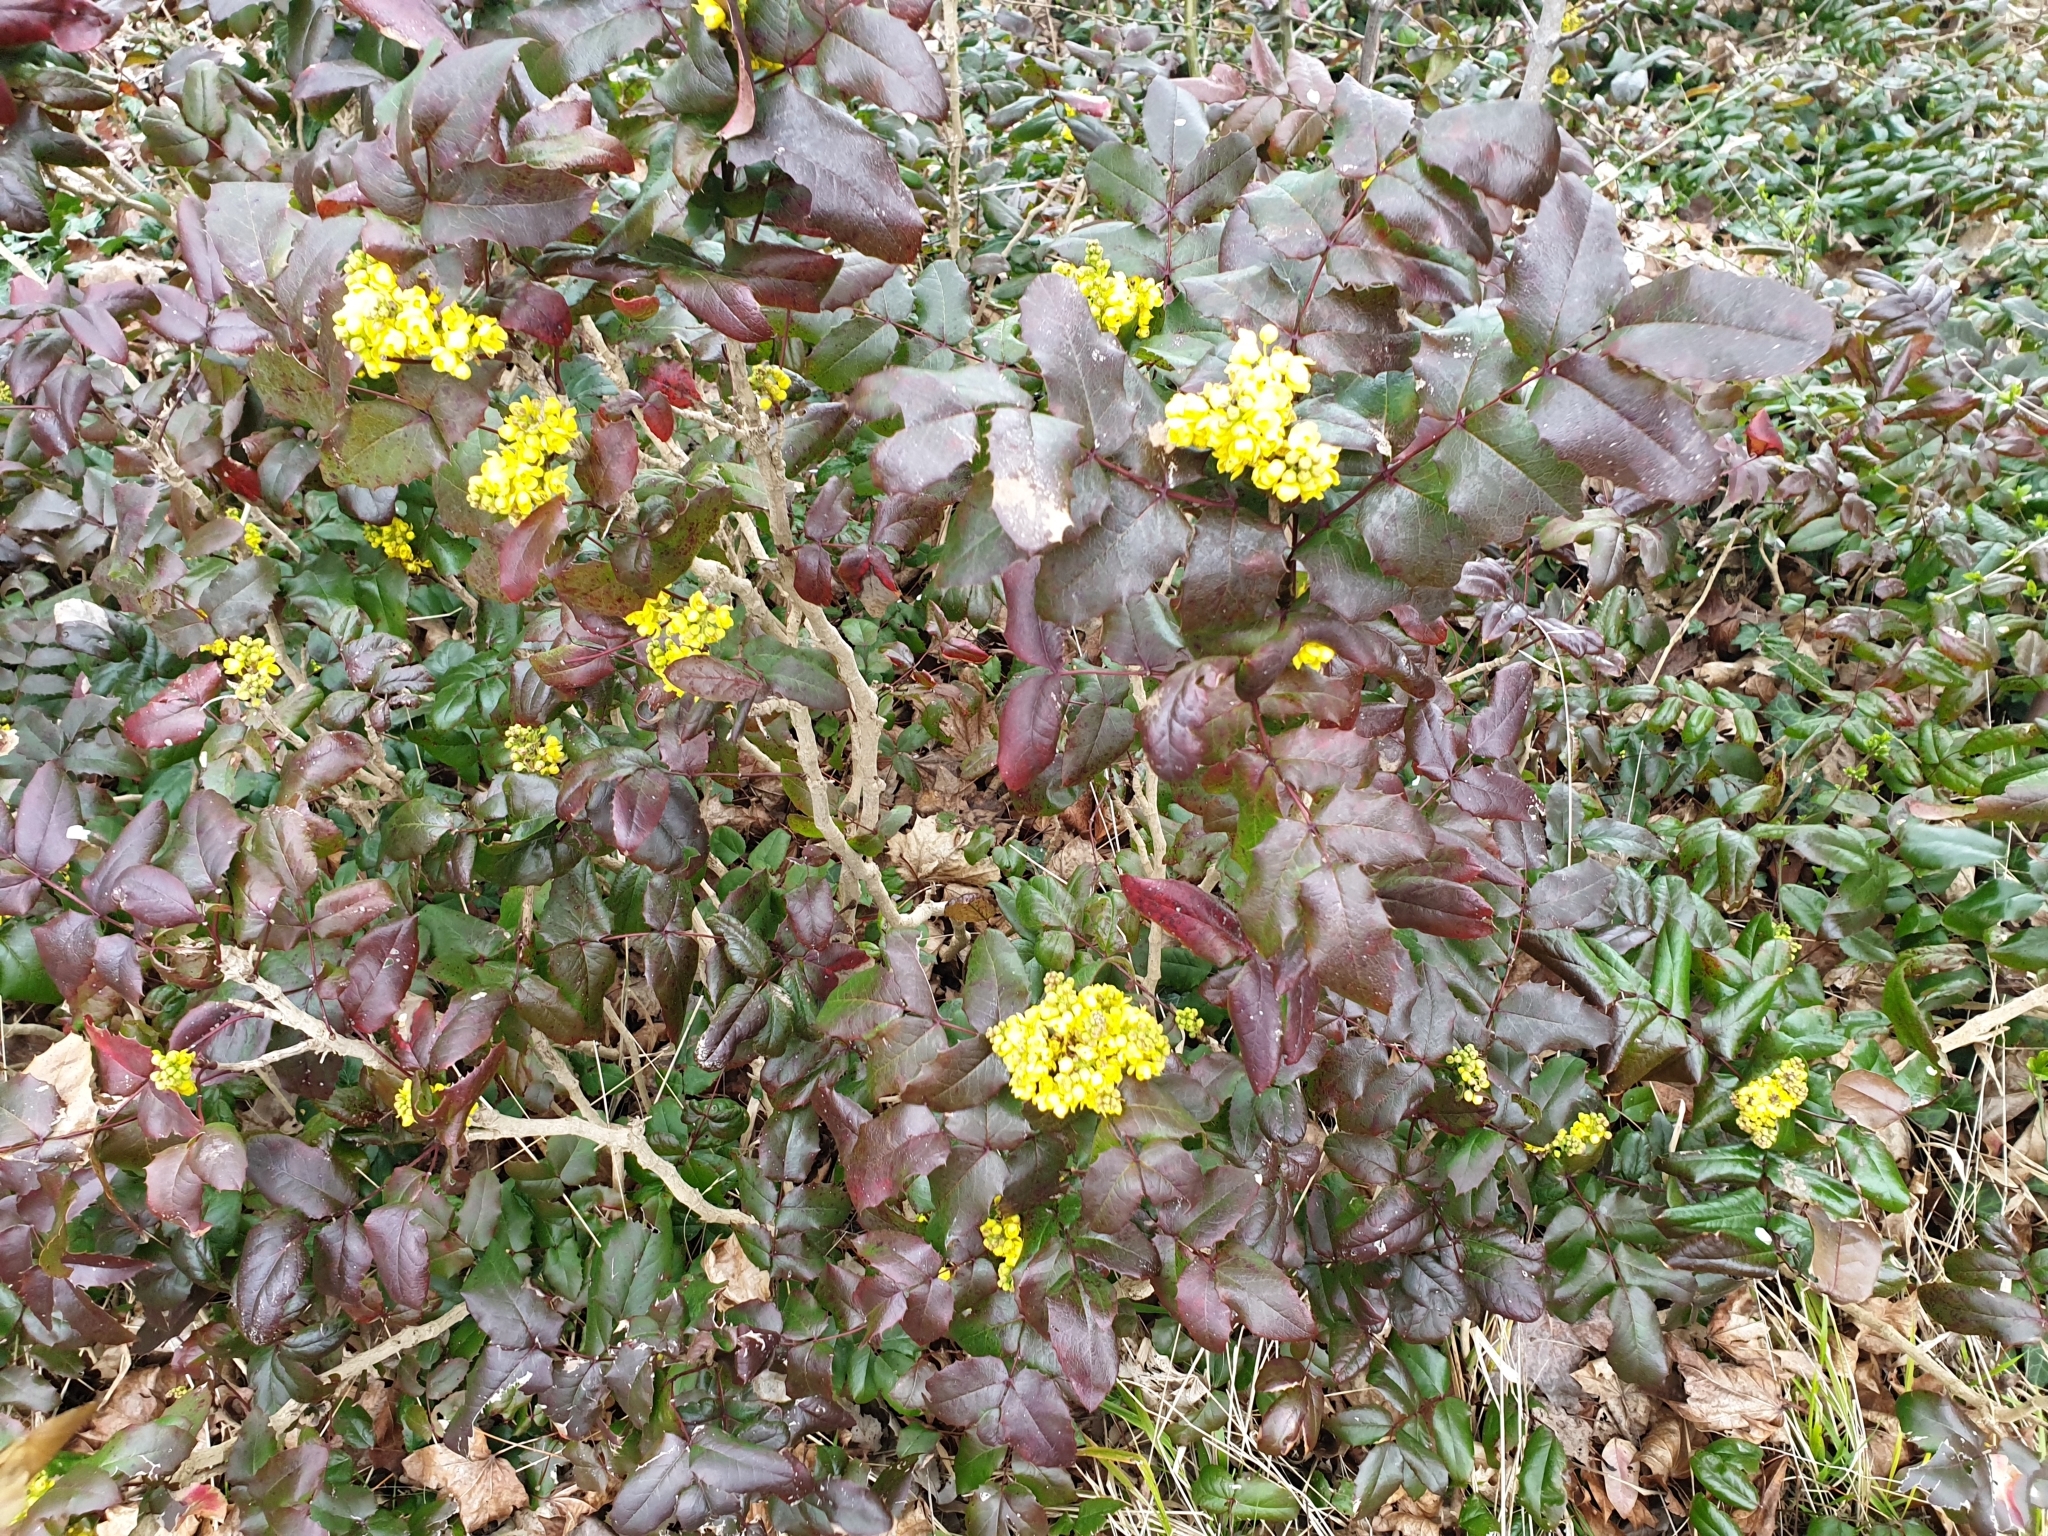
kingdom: Plantae
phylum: Tracheophyta
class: Magnoliopsida
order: Ranunculales
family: Berberidaceae
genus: Mahonia
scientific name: Mahonia aquifolium
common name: Oregon-grape
